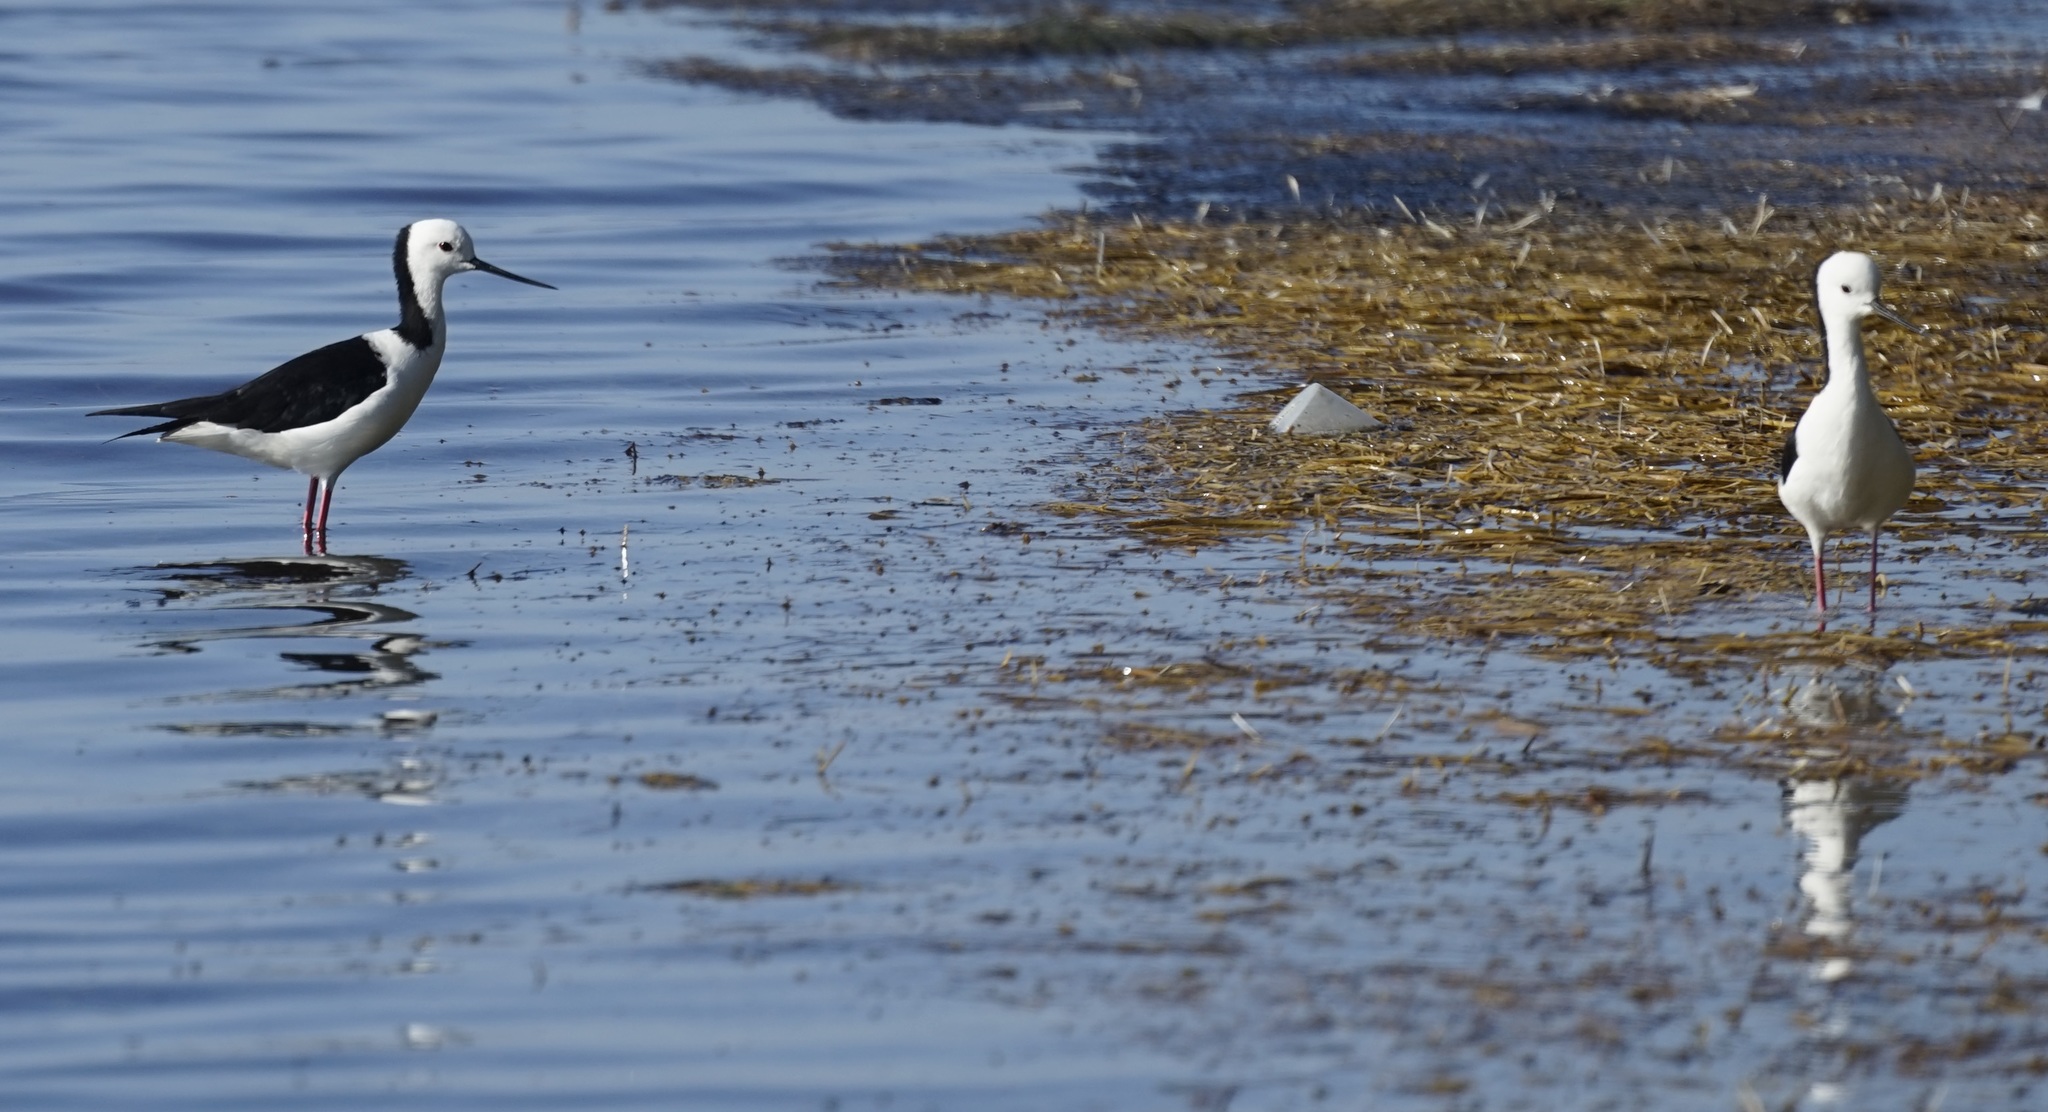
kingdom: Animalia
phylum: Chordata
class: Aves
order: Charadriiformes
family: Recurvirostridae
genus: Himantopus
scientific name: Himantopus leucocephalus
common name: White-headed stilt
